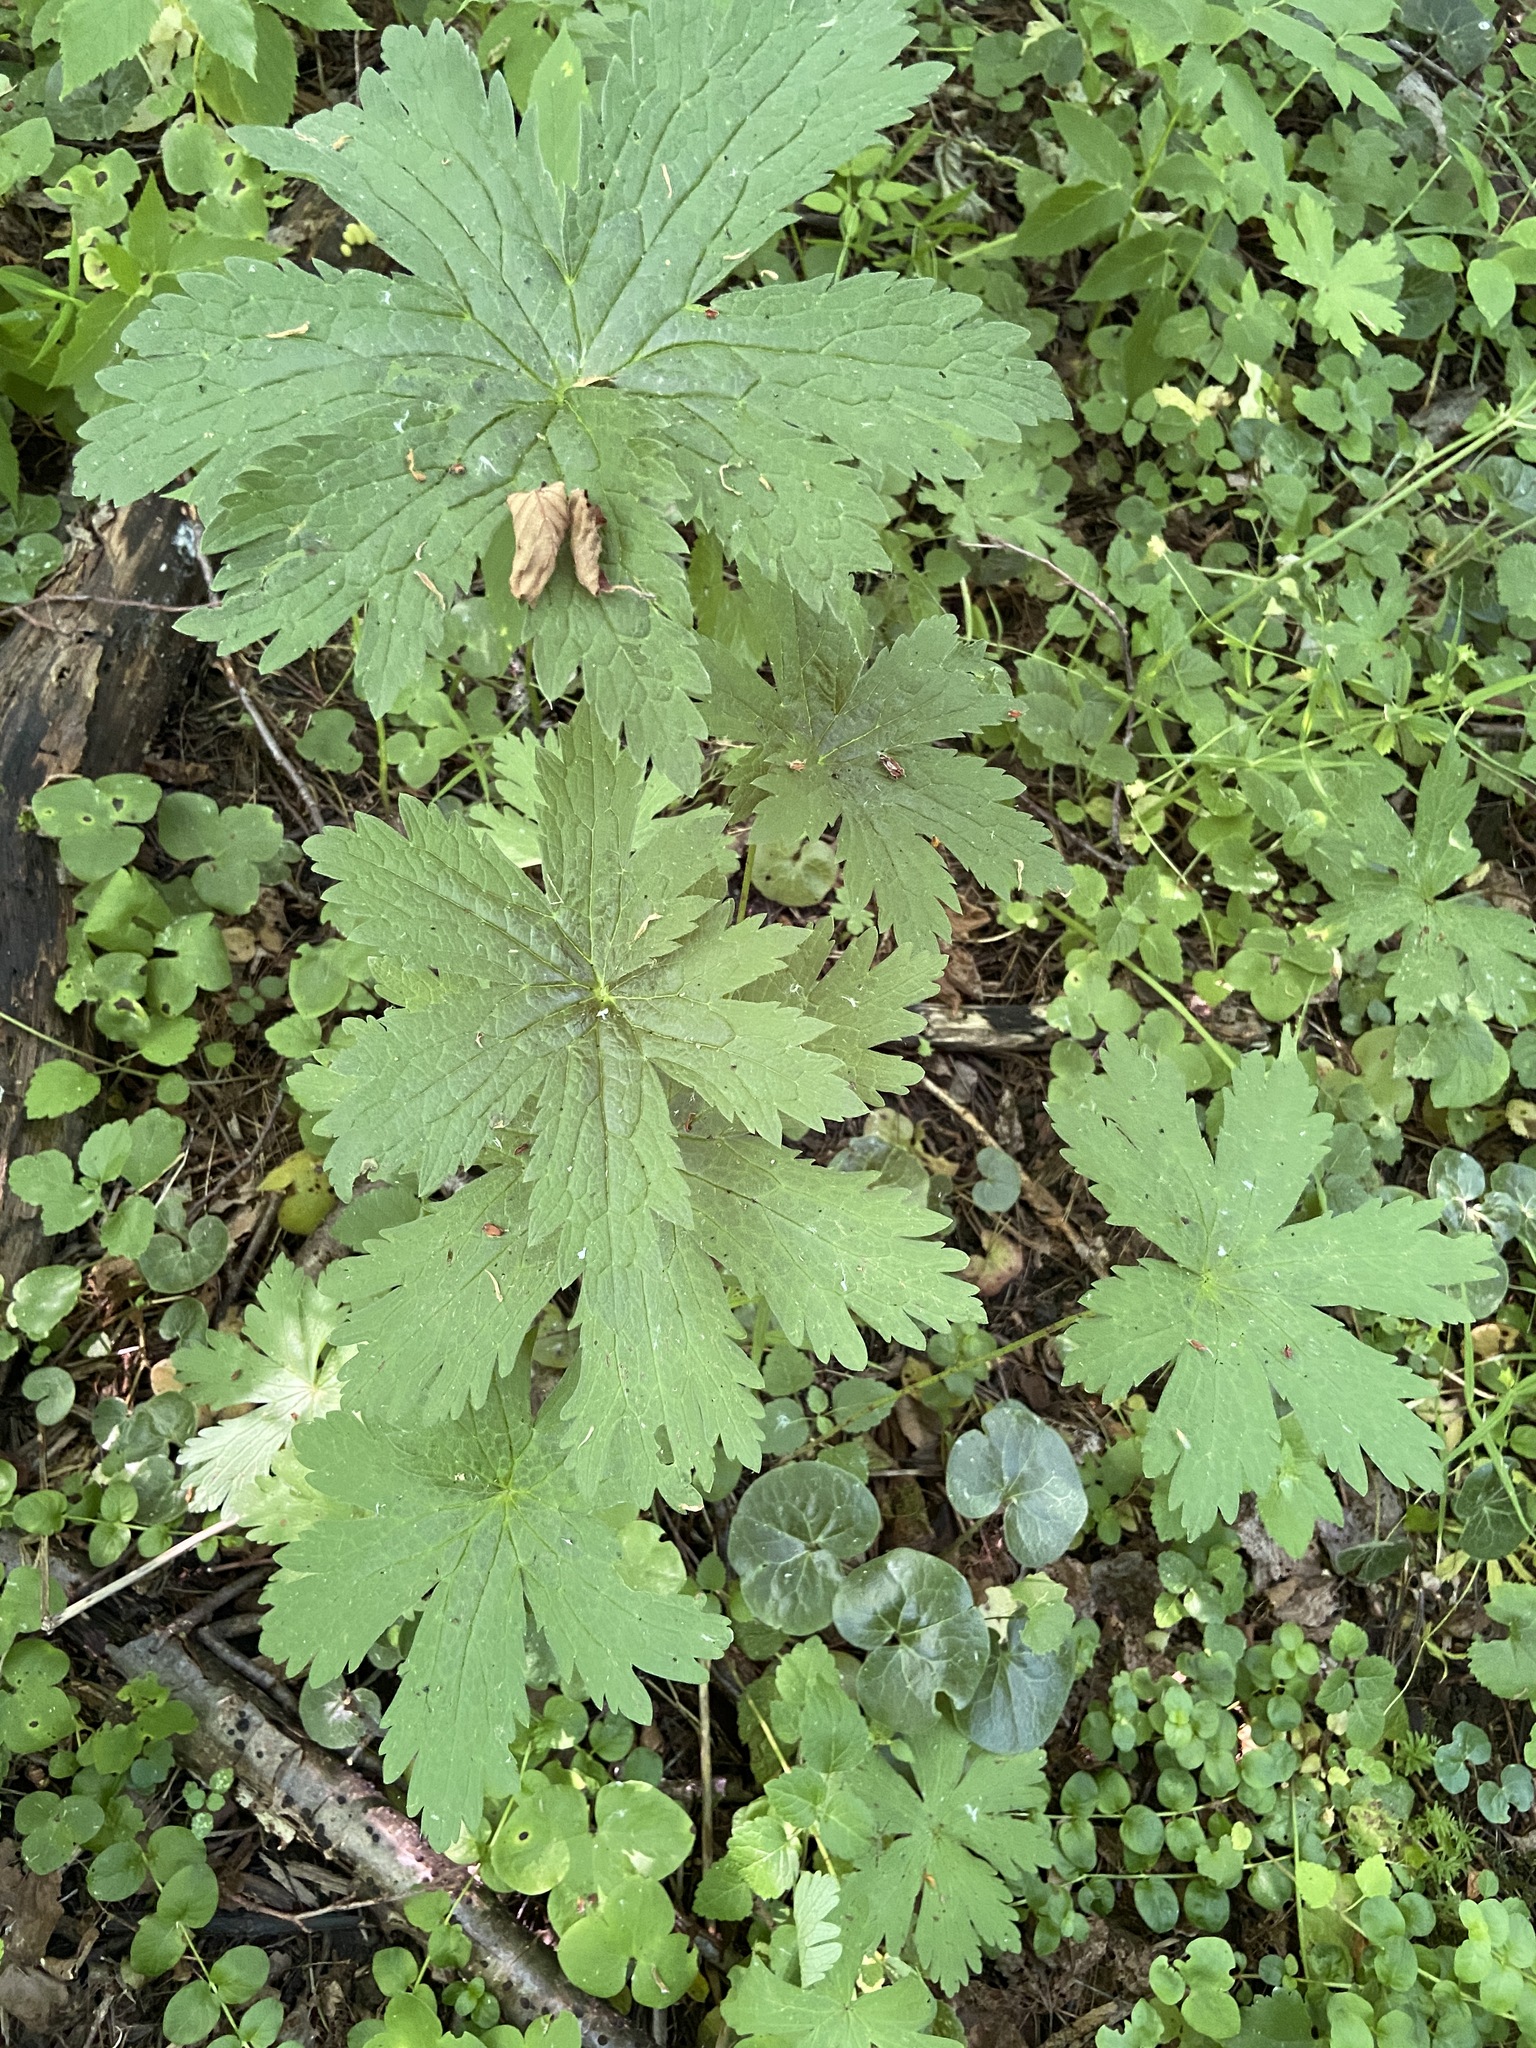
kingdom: Plantae
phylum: Tracheophyta
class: Magnoliopsida
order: Geraniales
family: Geraniaceae
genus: Geranium
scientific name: Geranium sylvaticum
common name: Wood crane's-bill
